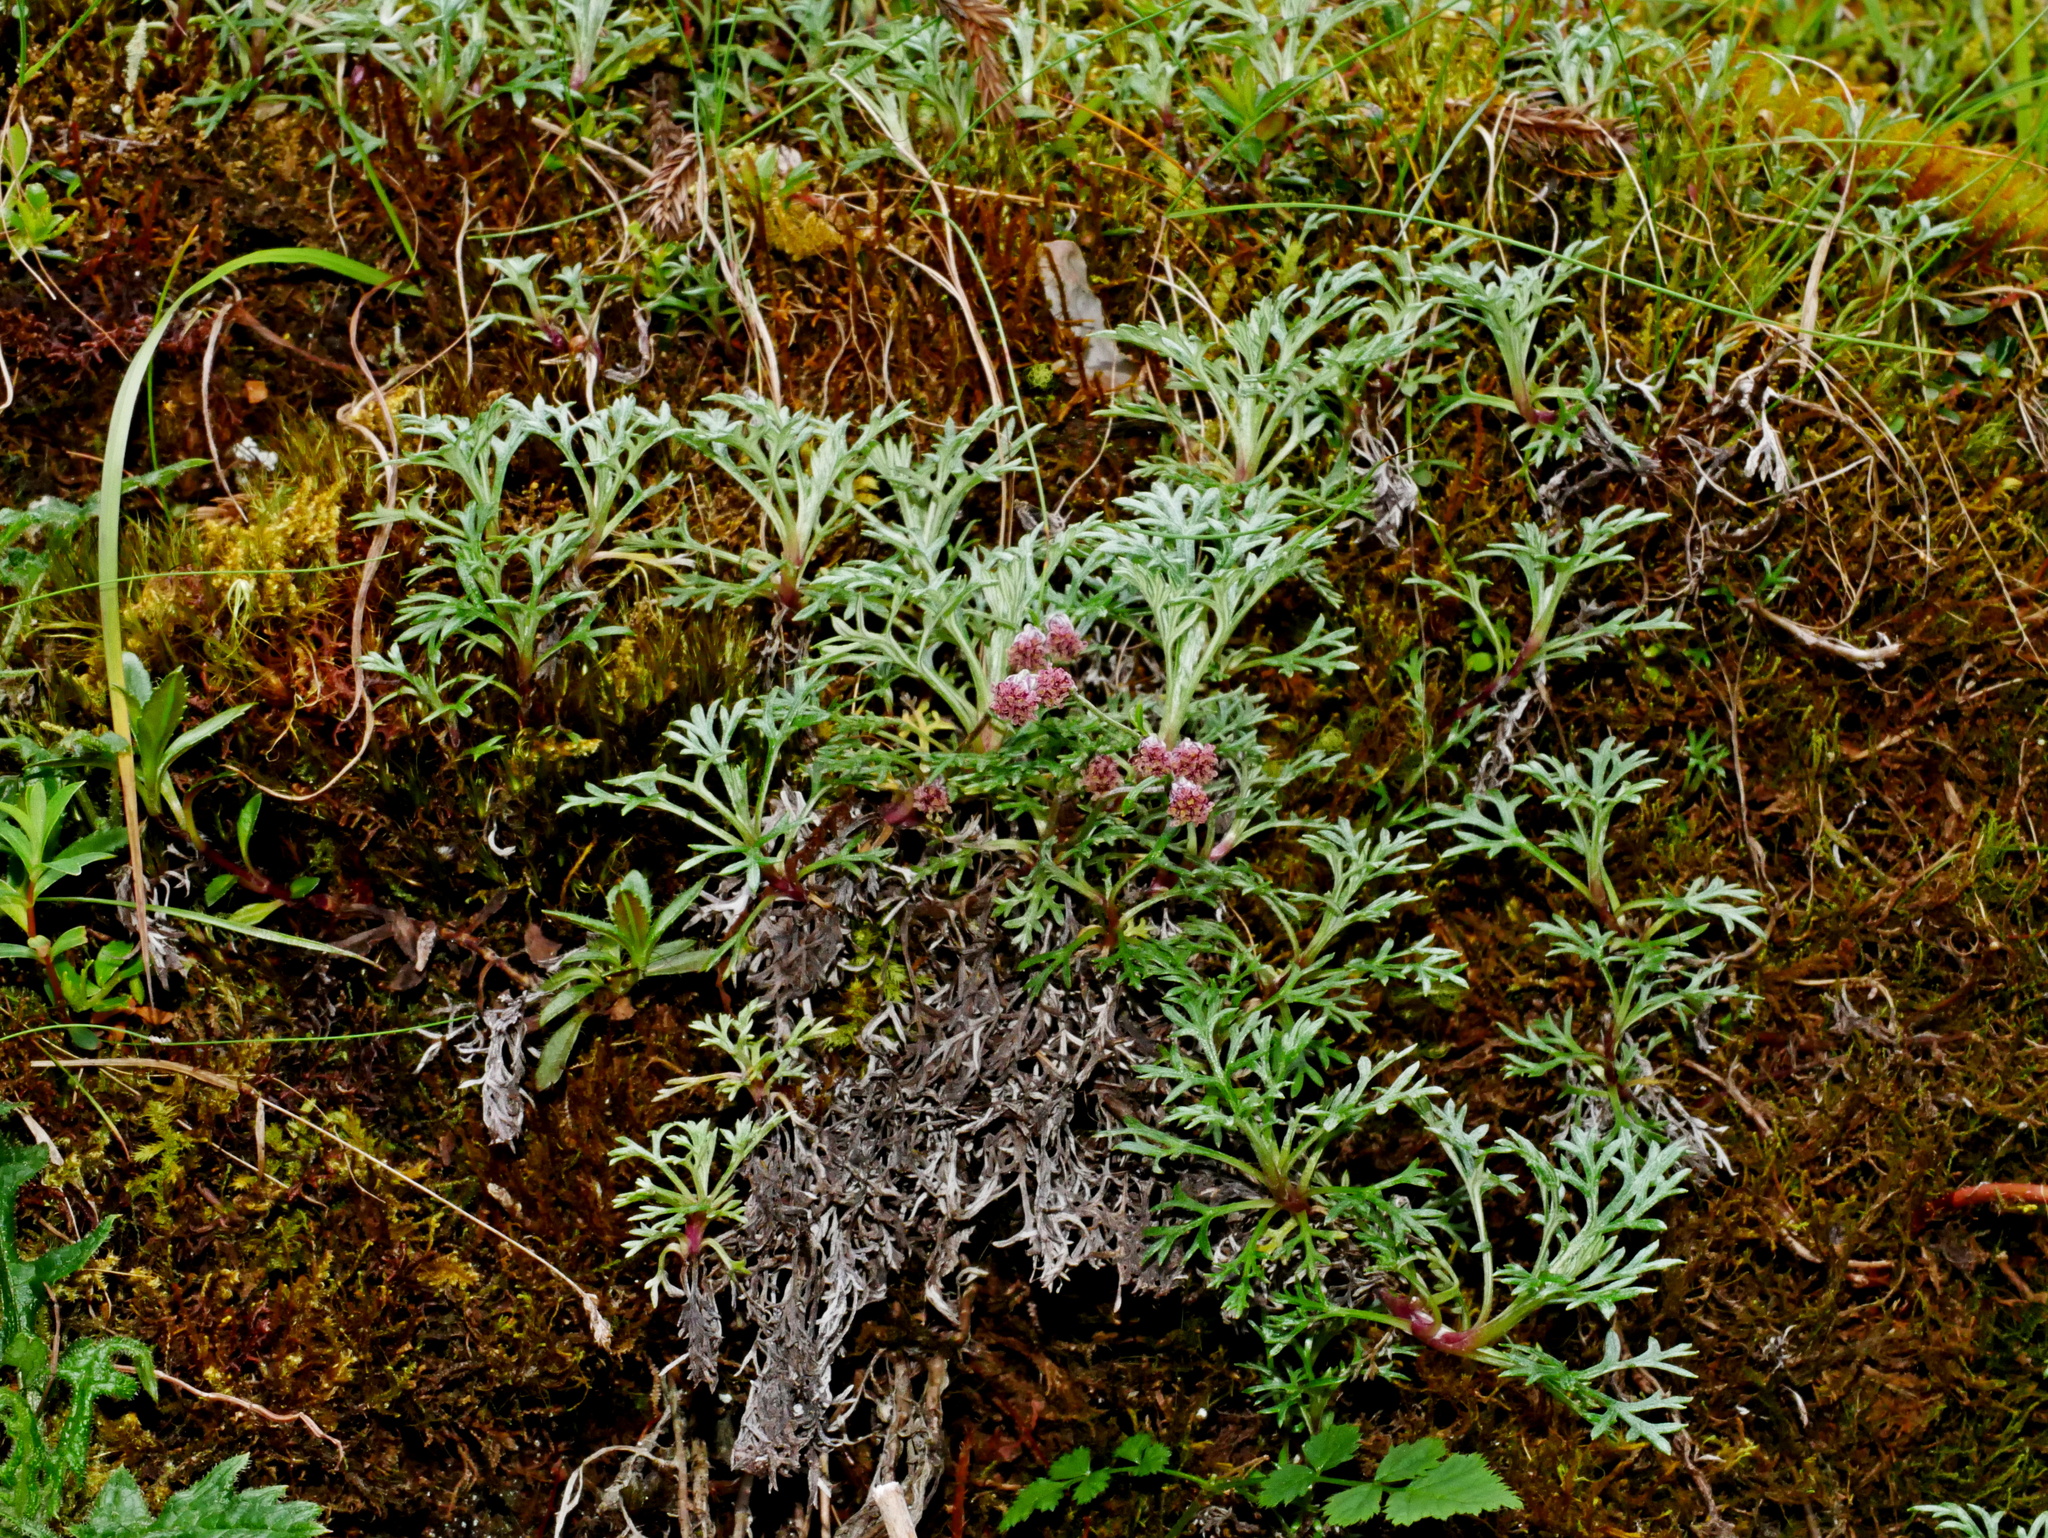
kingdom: Plantae
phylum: Tracheophyta
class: Magnoliopsida
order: Asterales
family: Asteraceae
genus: Artemisia
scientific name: Artemisia kawakamii
